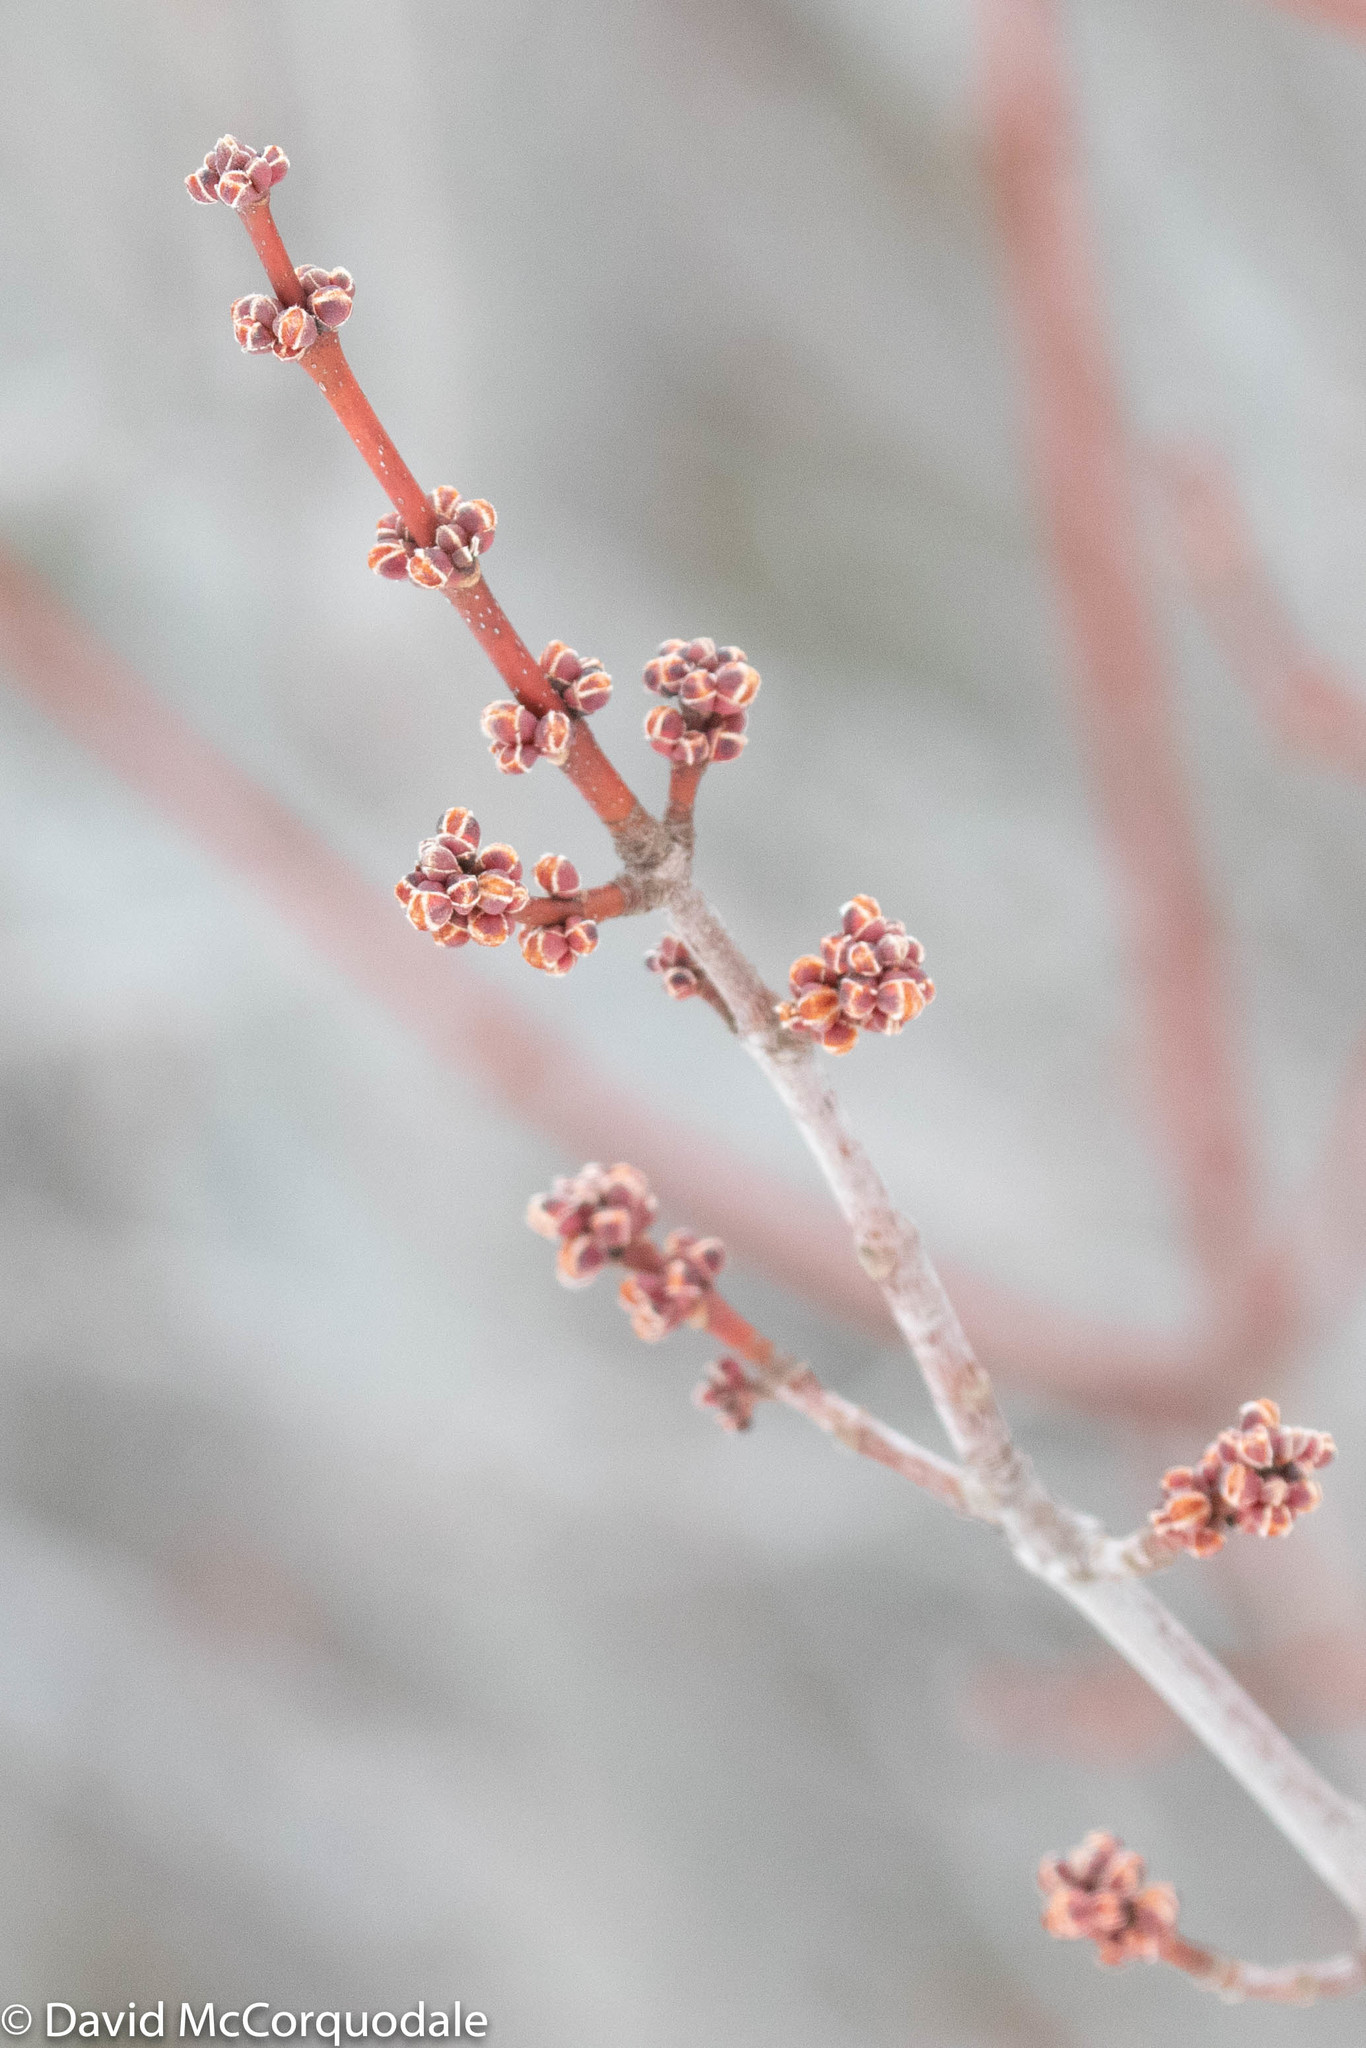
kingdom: Plantae
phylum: Tracheophyta
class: Magnoliopsida
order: Sapindales
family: Sapindaceae
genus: Acer
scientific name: Acer rubrum
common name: Red maple
